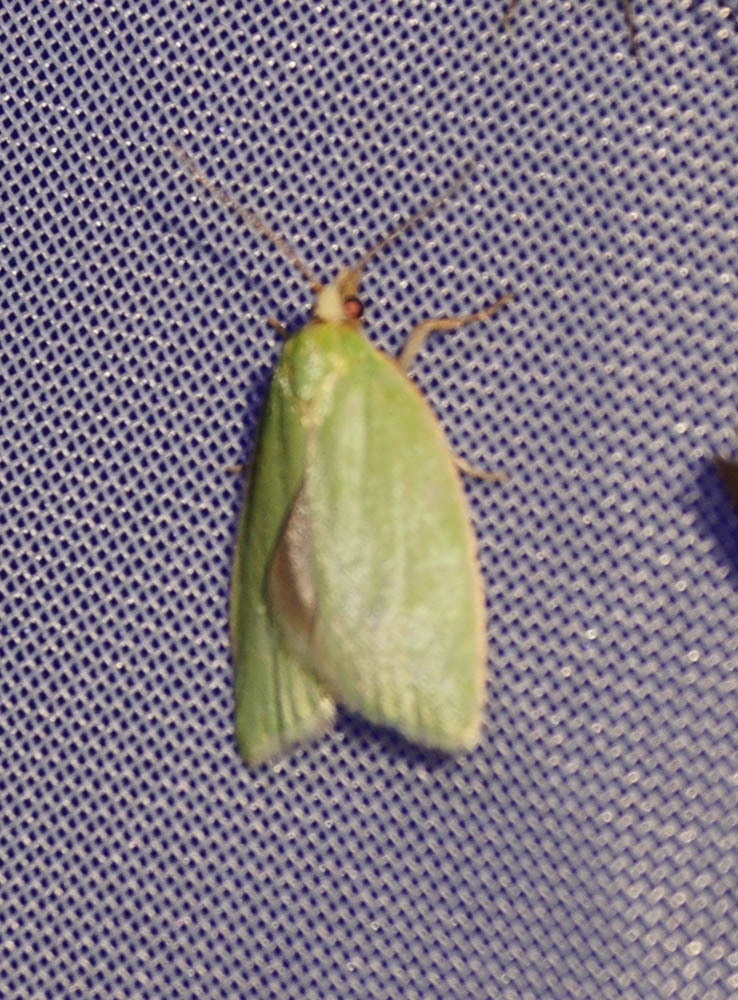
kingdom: Animalia
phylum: Arthropoda
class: Insecta
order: Lepidoptera
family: Tortricidae
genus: Tortrix
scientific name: Tortrix viridana
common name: Green oak tortrix
